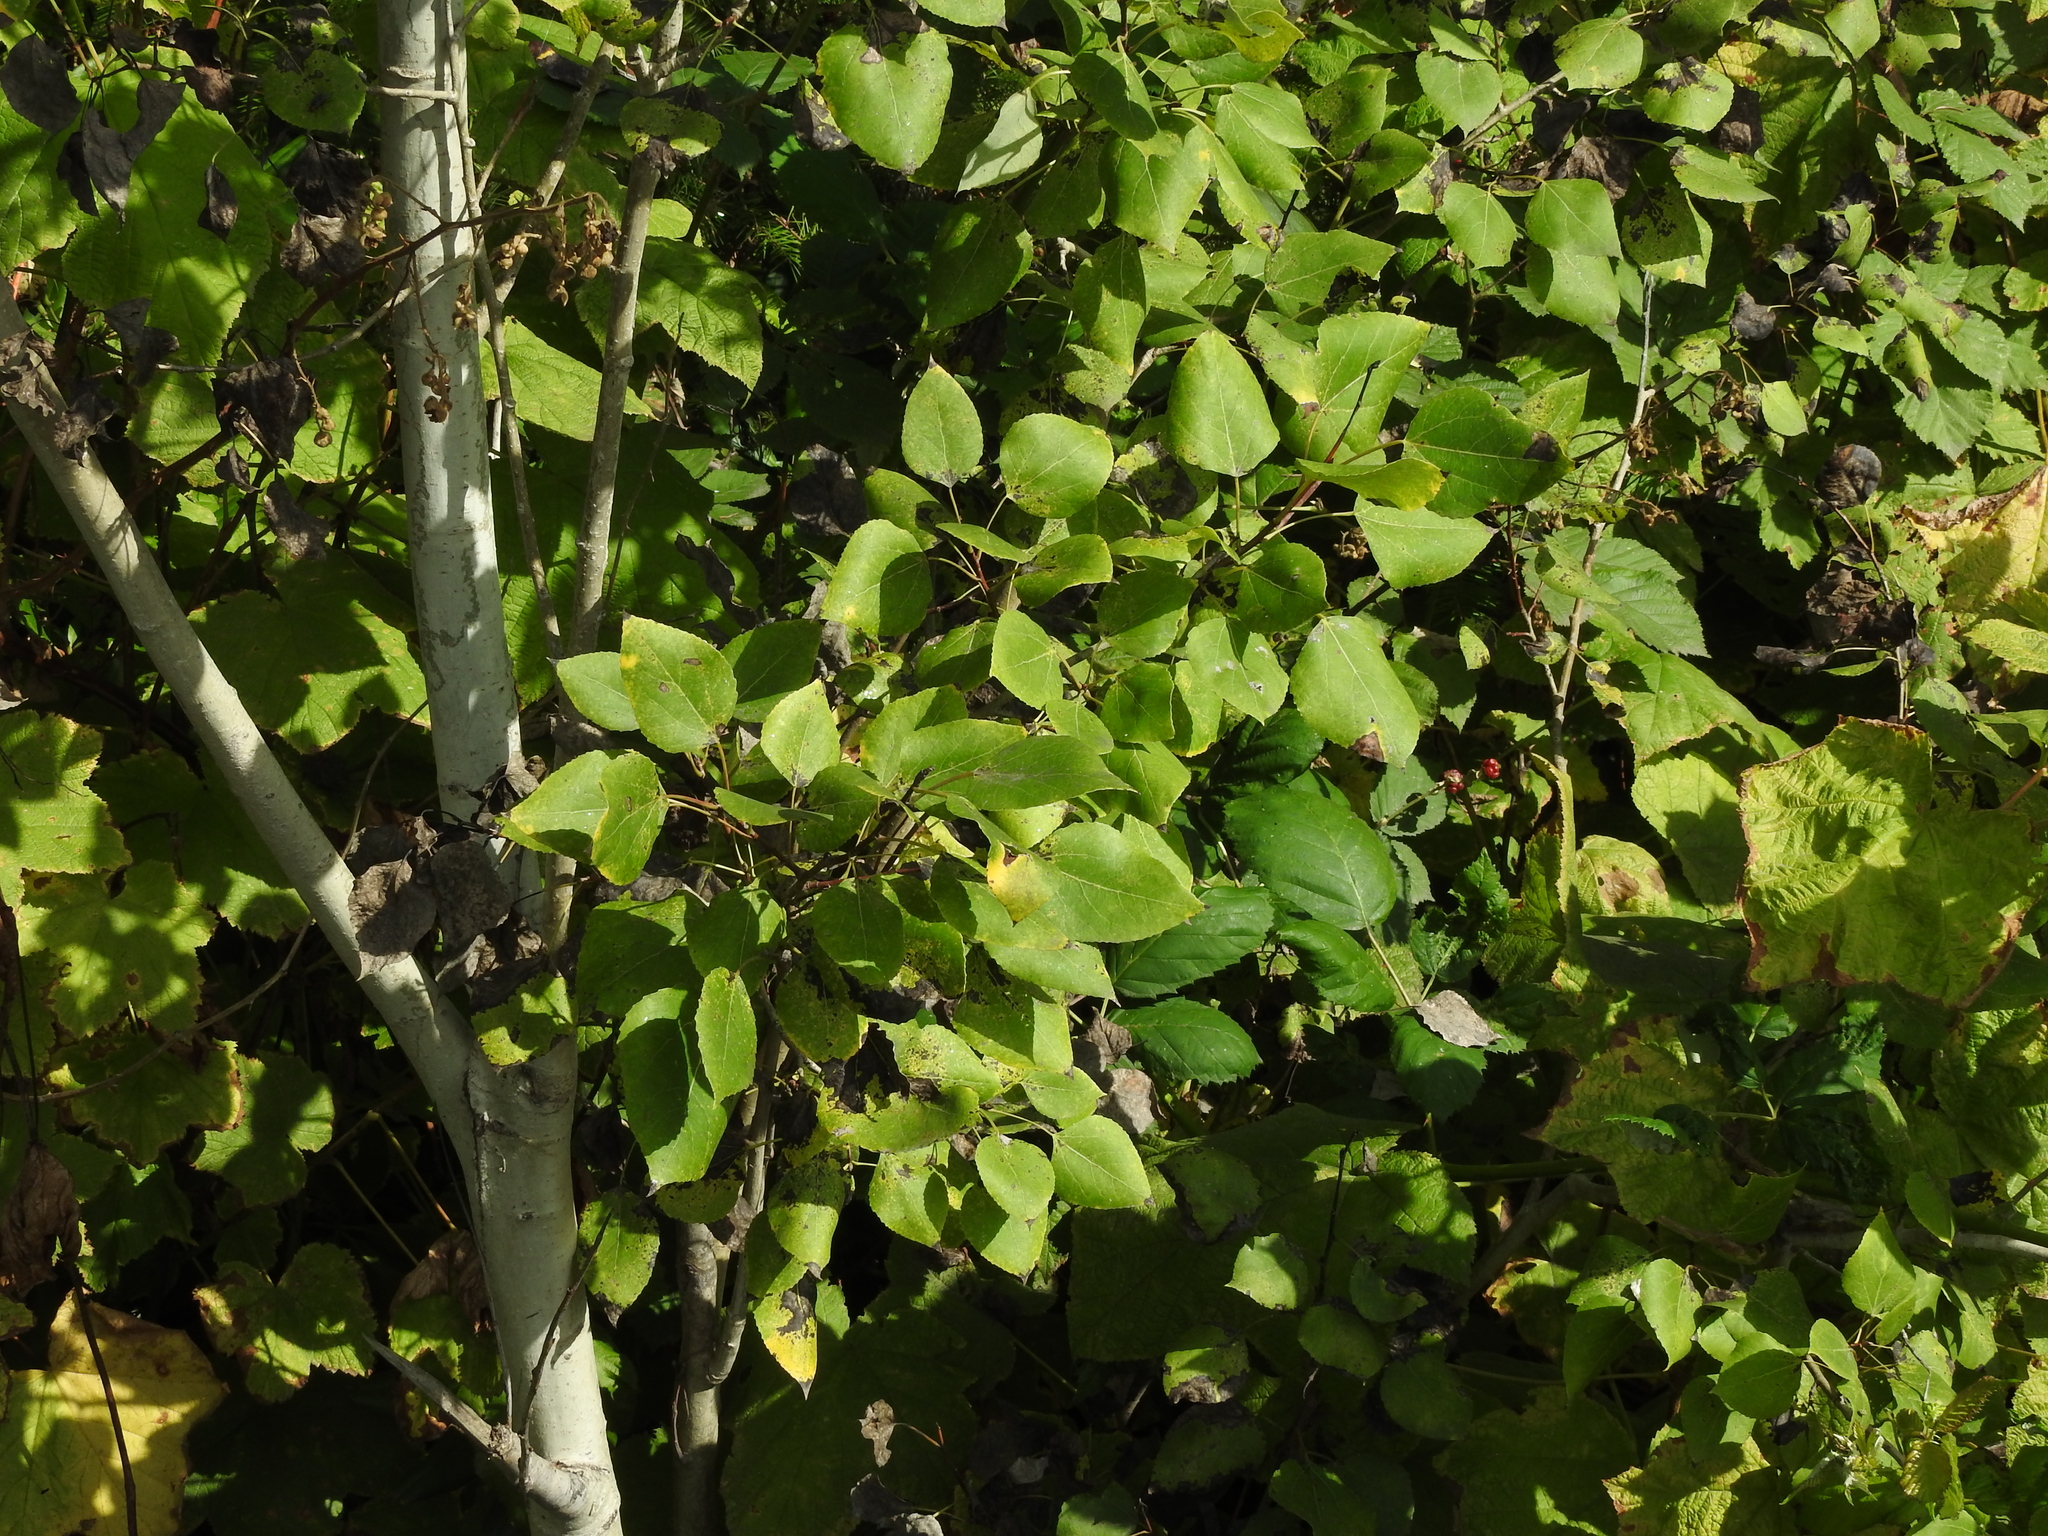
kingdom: Plantae
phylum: Tracheophyta
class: Magnoliopsida
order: Malpighiales
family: Salicaceae
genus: Populus
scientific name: Populus tremuloides
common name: Quaking aspen
